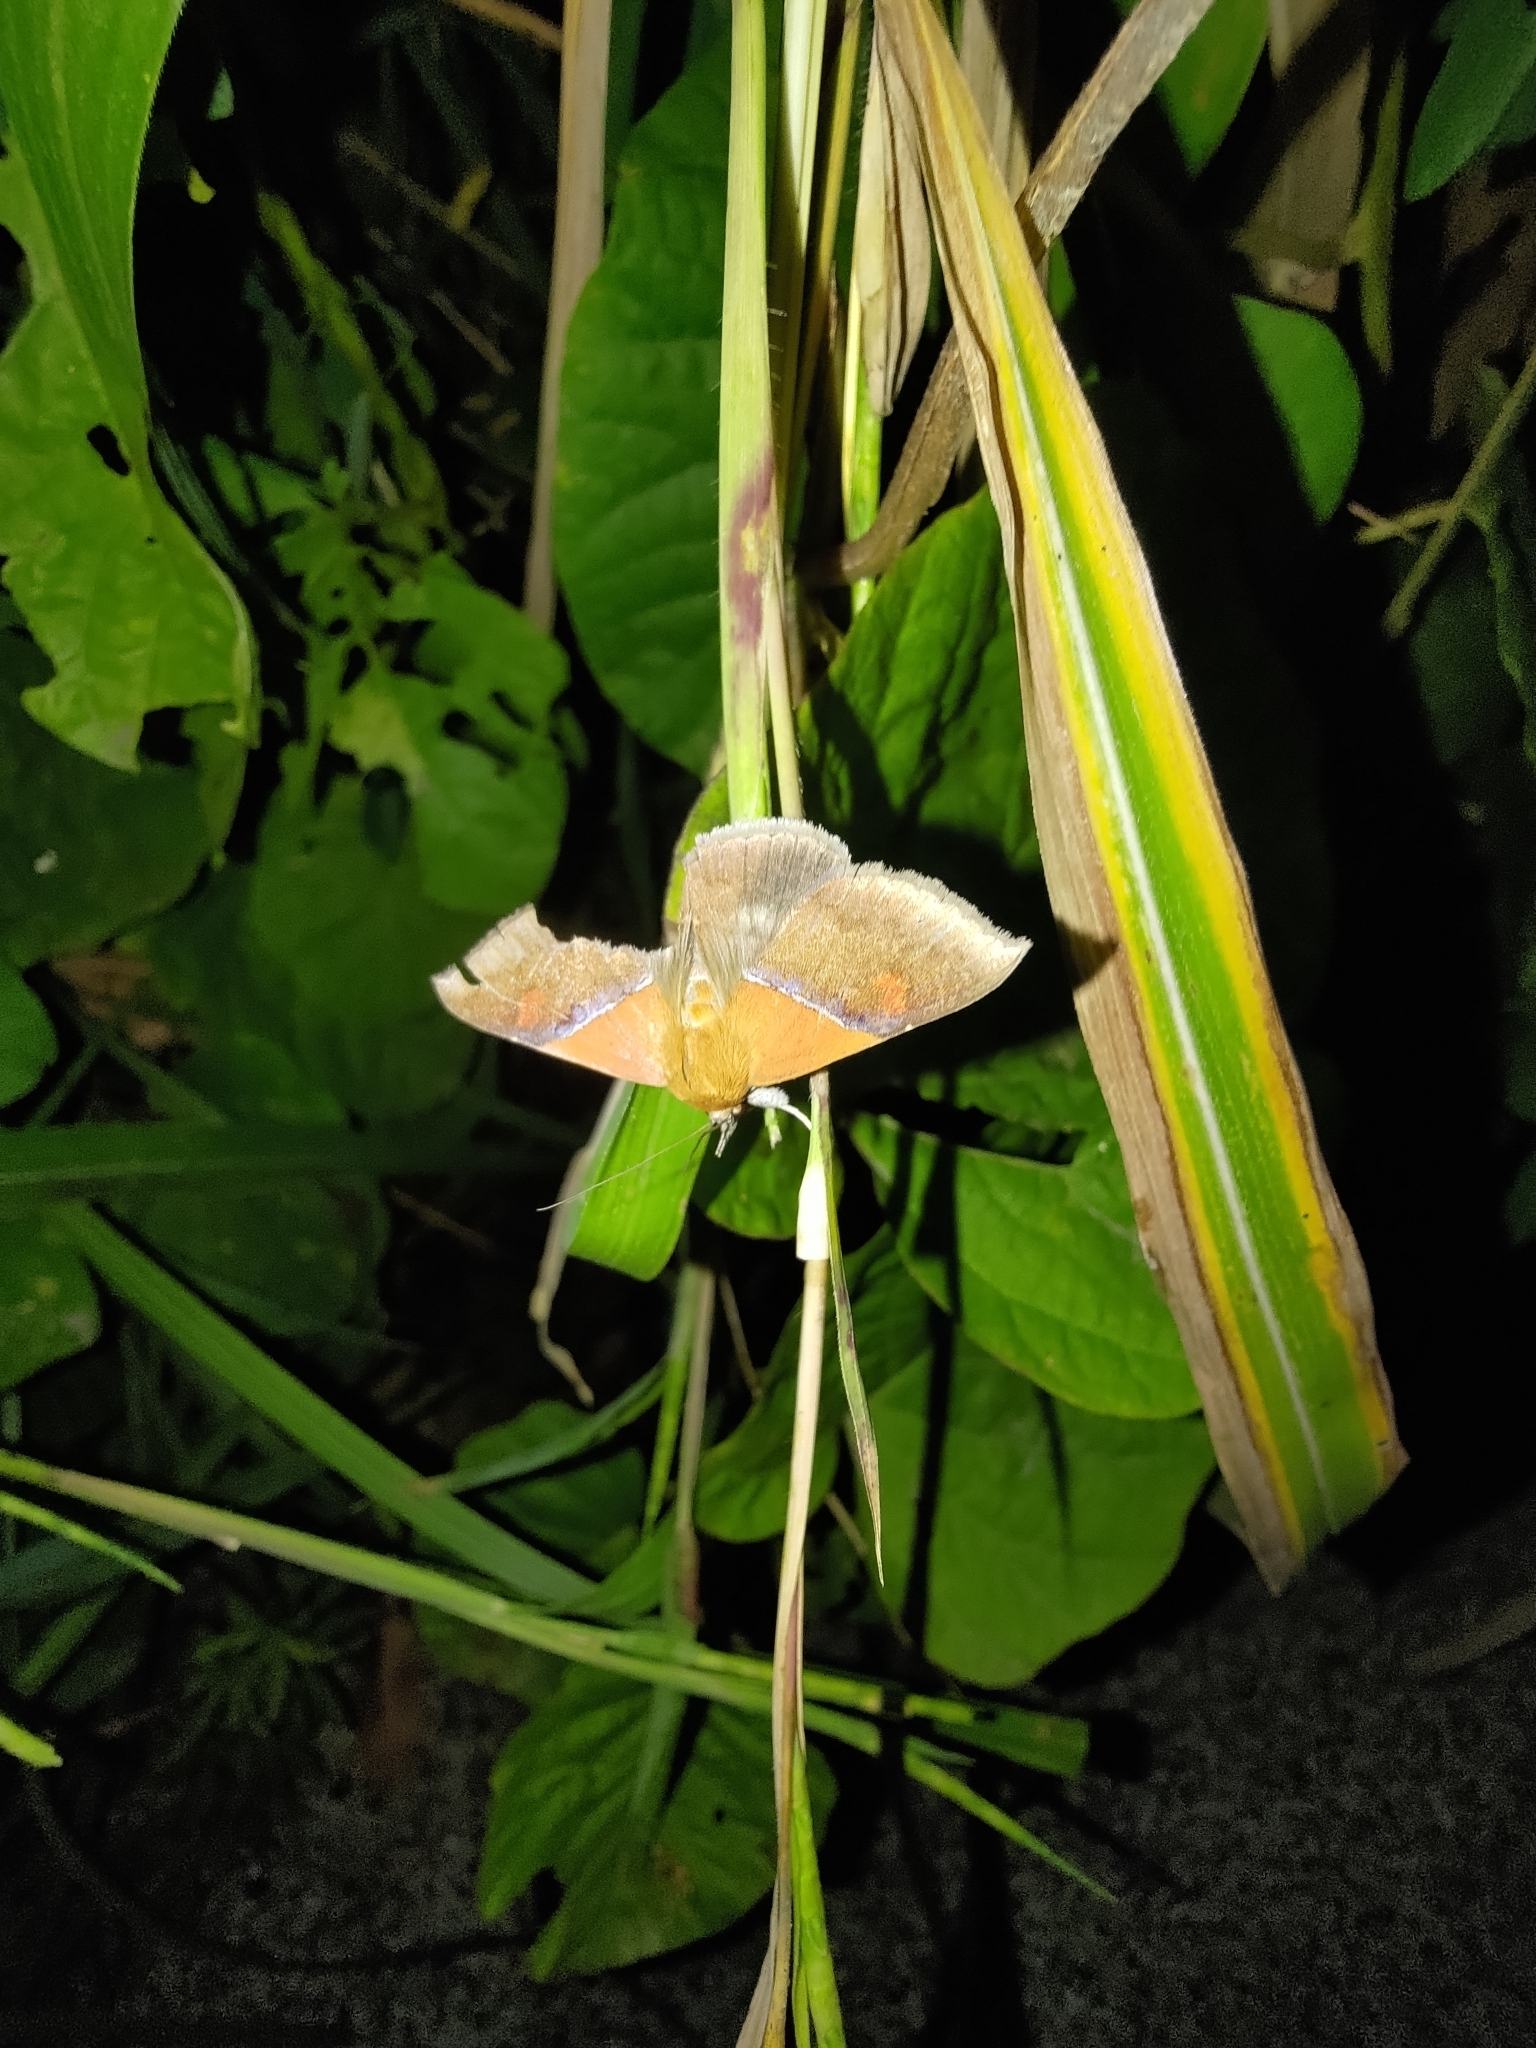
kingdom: Animalia
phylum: Arthropoda
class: Insecta
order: Lepidoptera
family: Erebidae
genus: Sympis
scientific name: Sympis rufibasis
